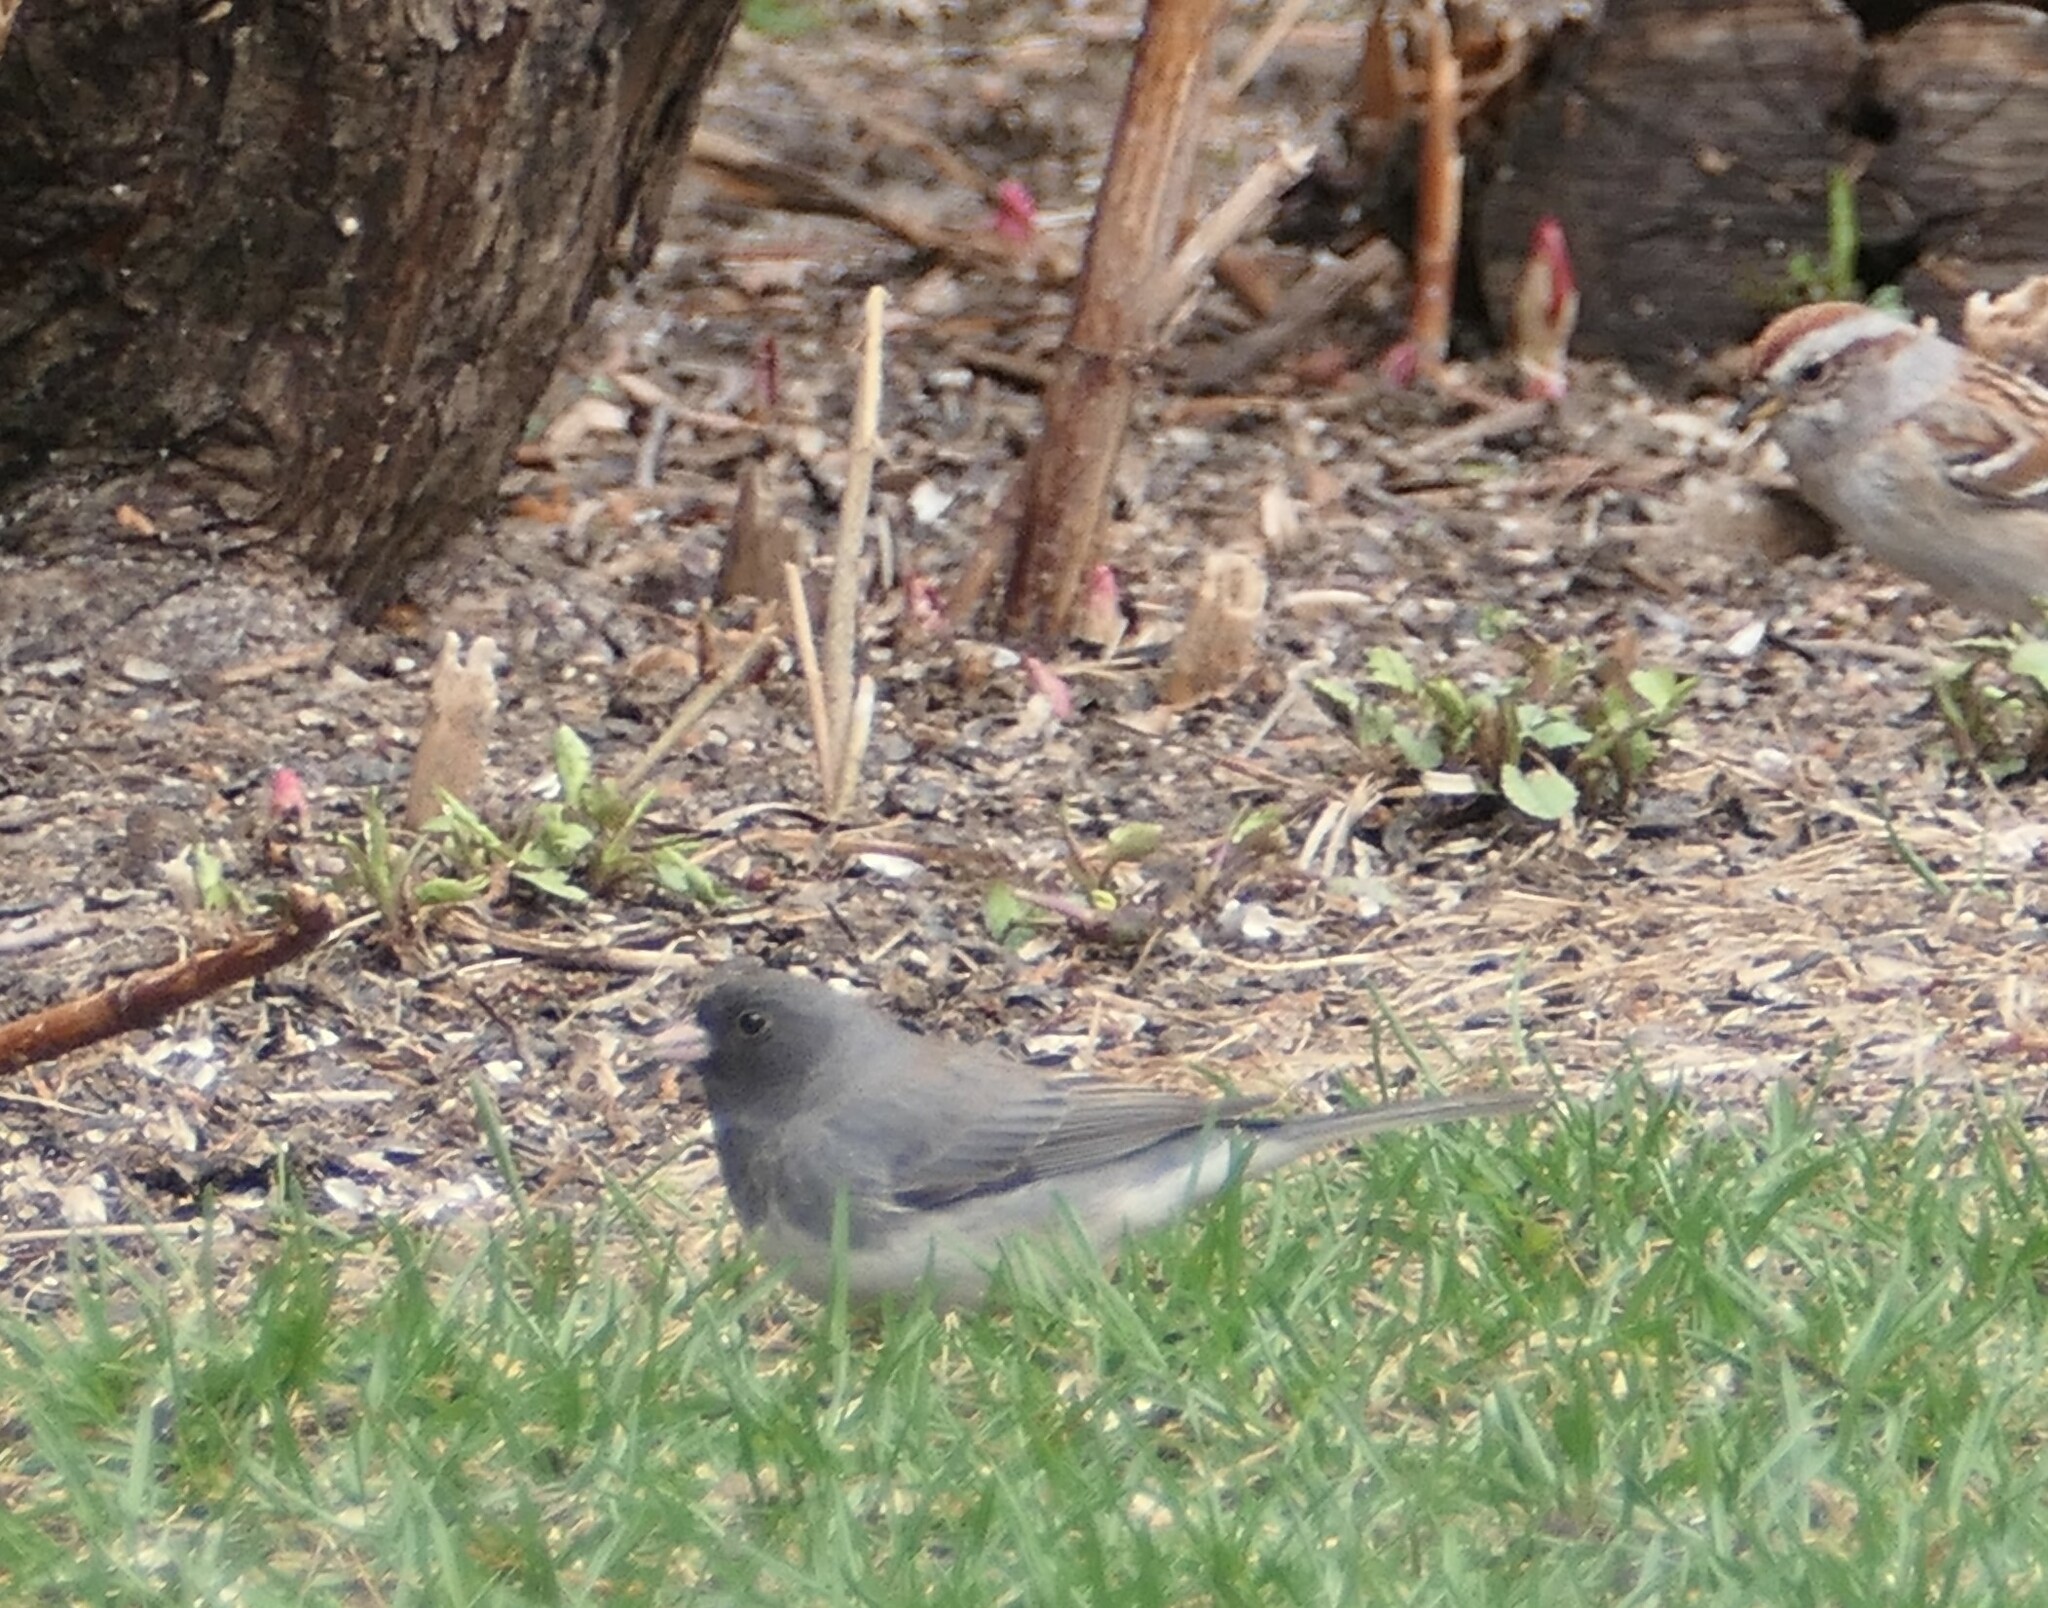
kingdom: Animalia
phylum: Chordata
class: Aves
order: Passeriformes
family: Passerellidae
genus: Junco
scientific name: Junco hyemalis
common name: Dark-eyed junco
